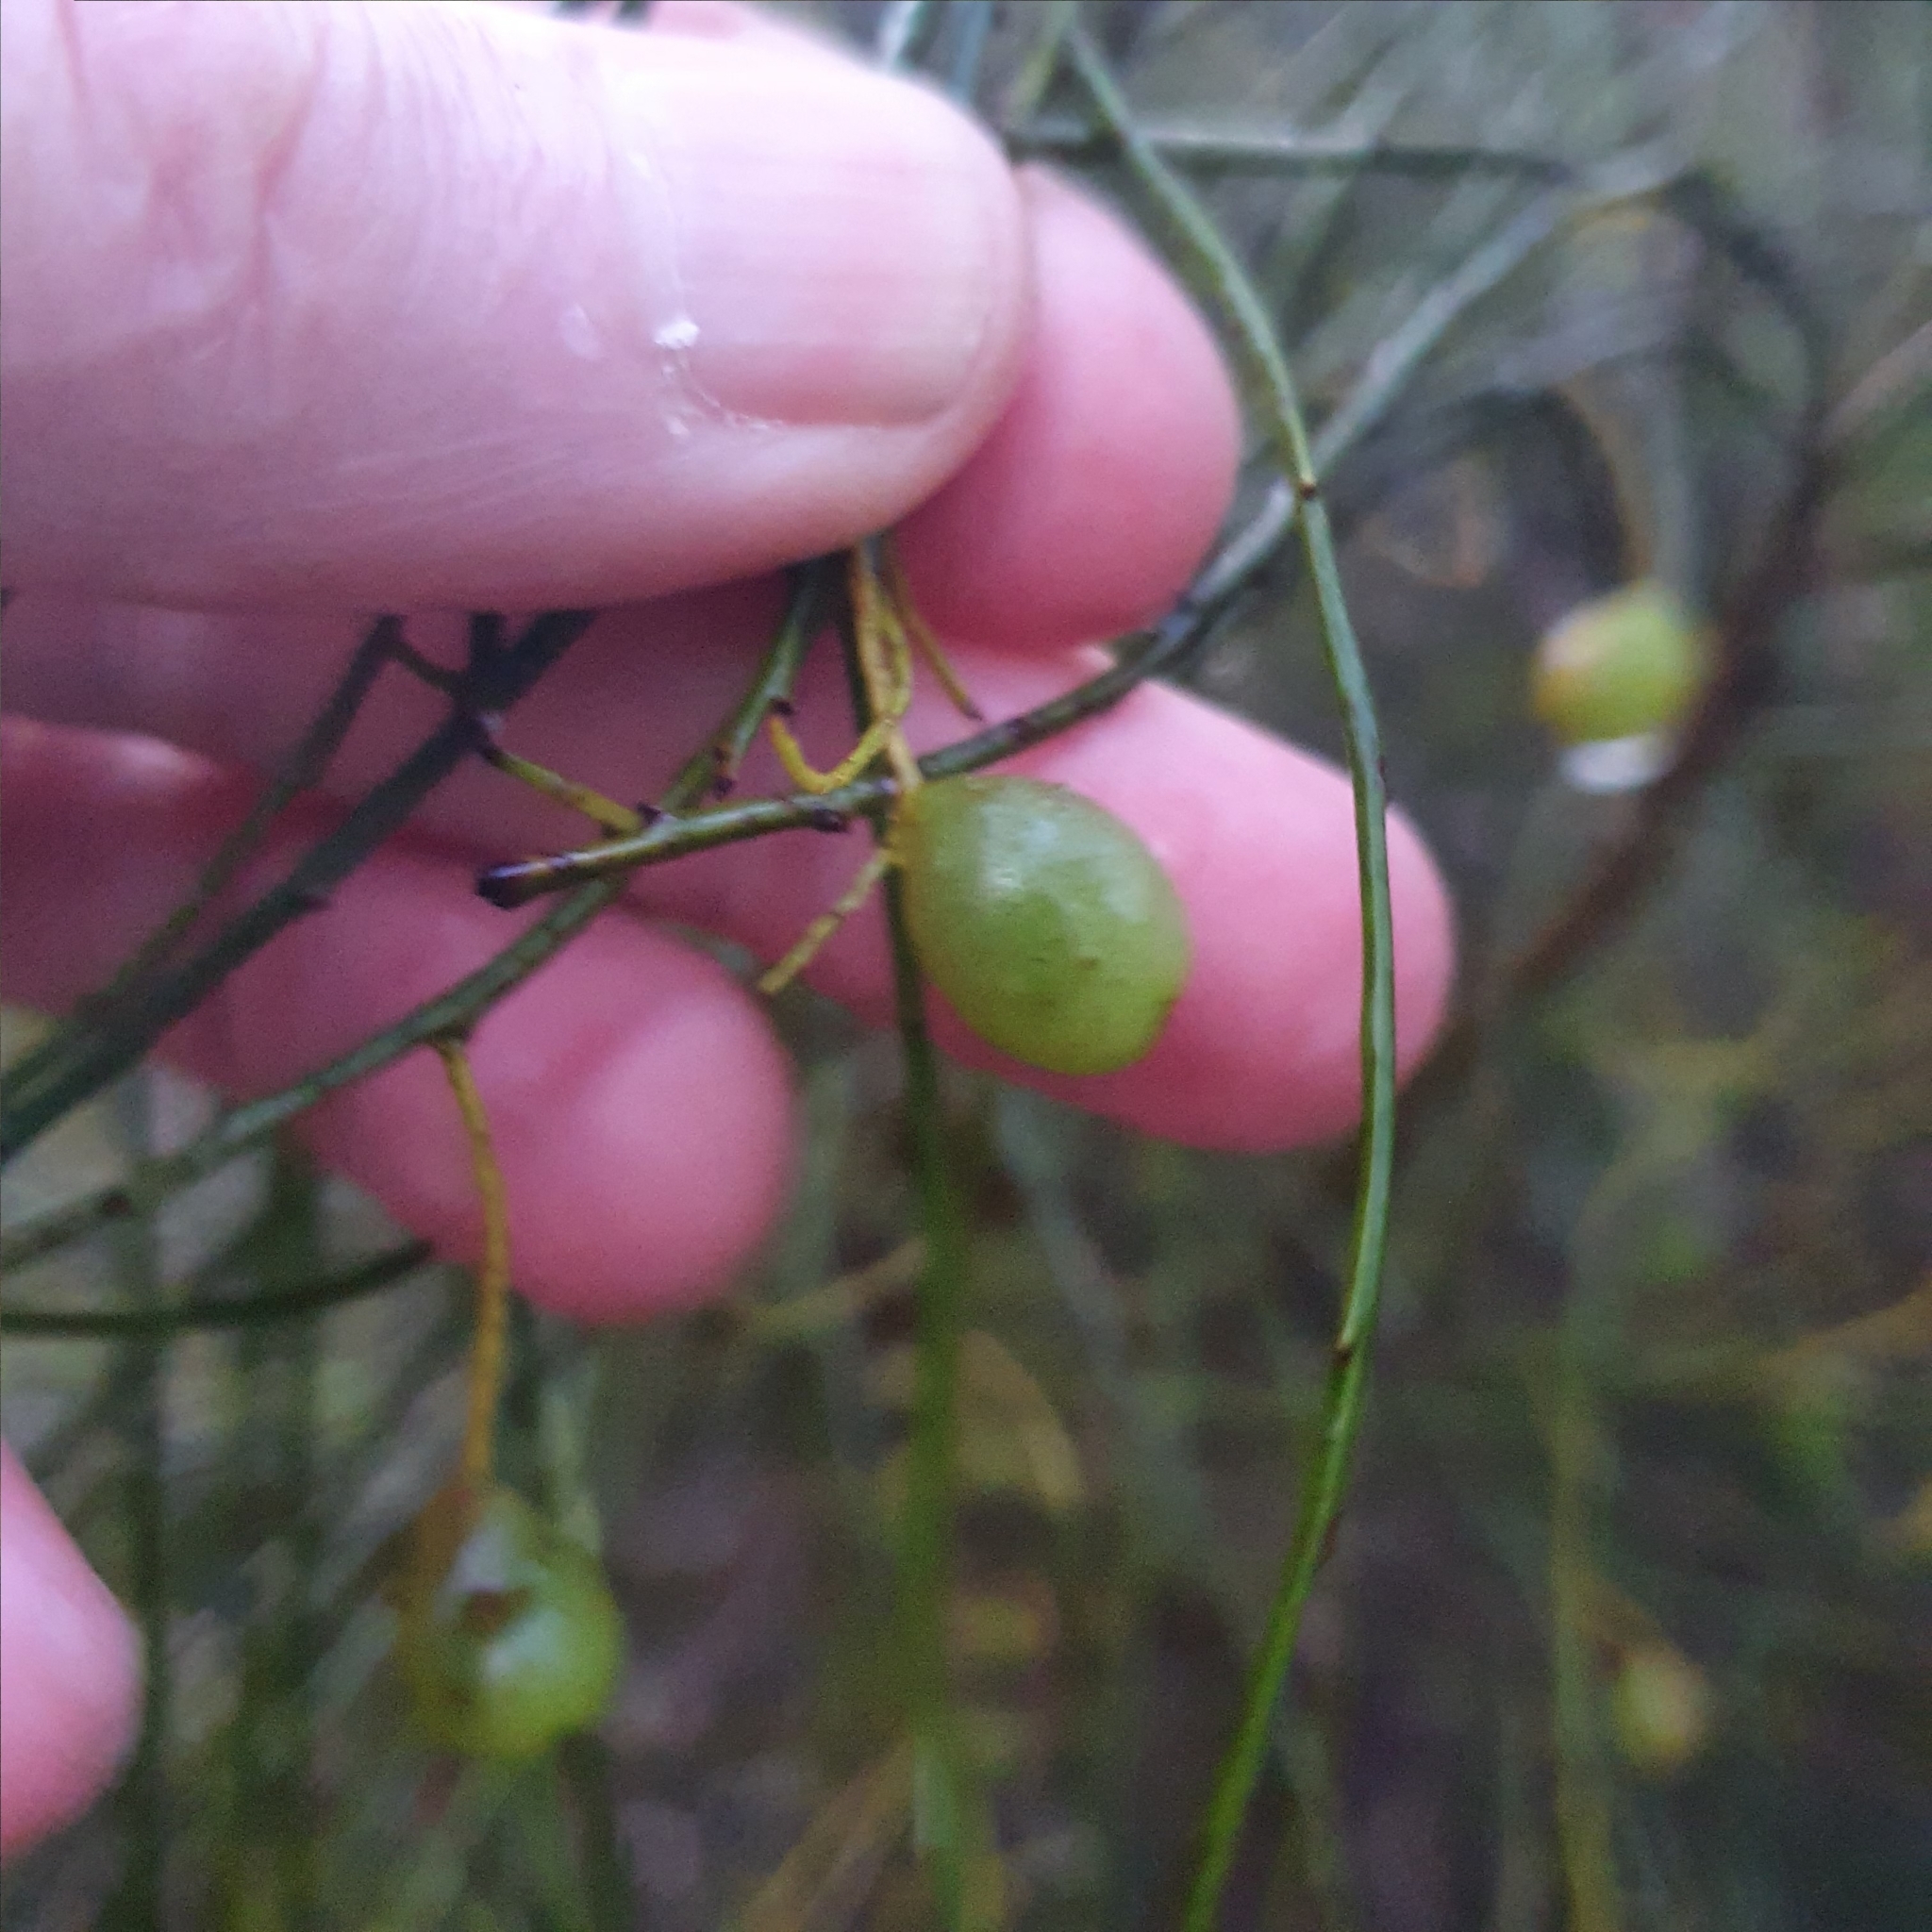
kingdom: Plantae
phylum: Tracheophyta
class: Magnoliopsida
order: Santalales
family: Amphorogynaceae
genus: Leptomeria
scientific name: Leptomeria acida
